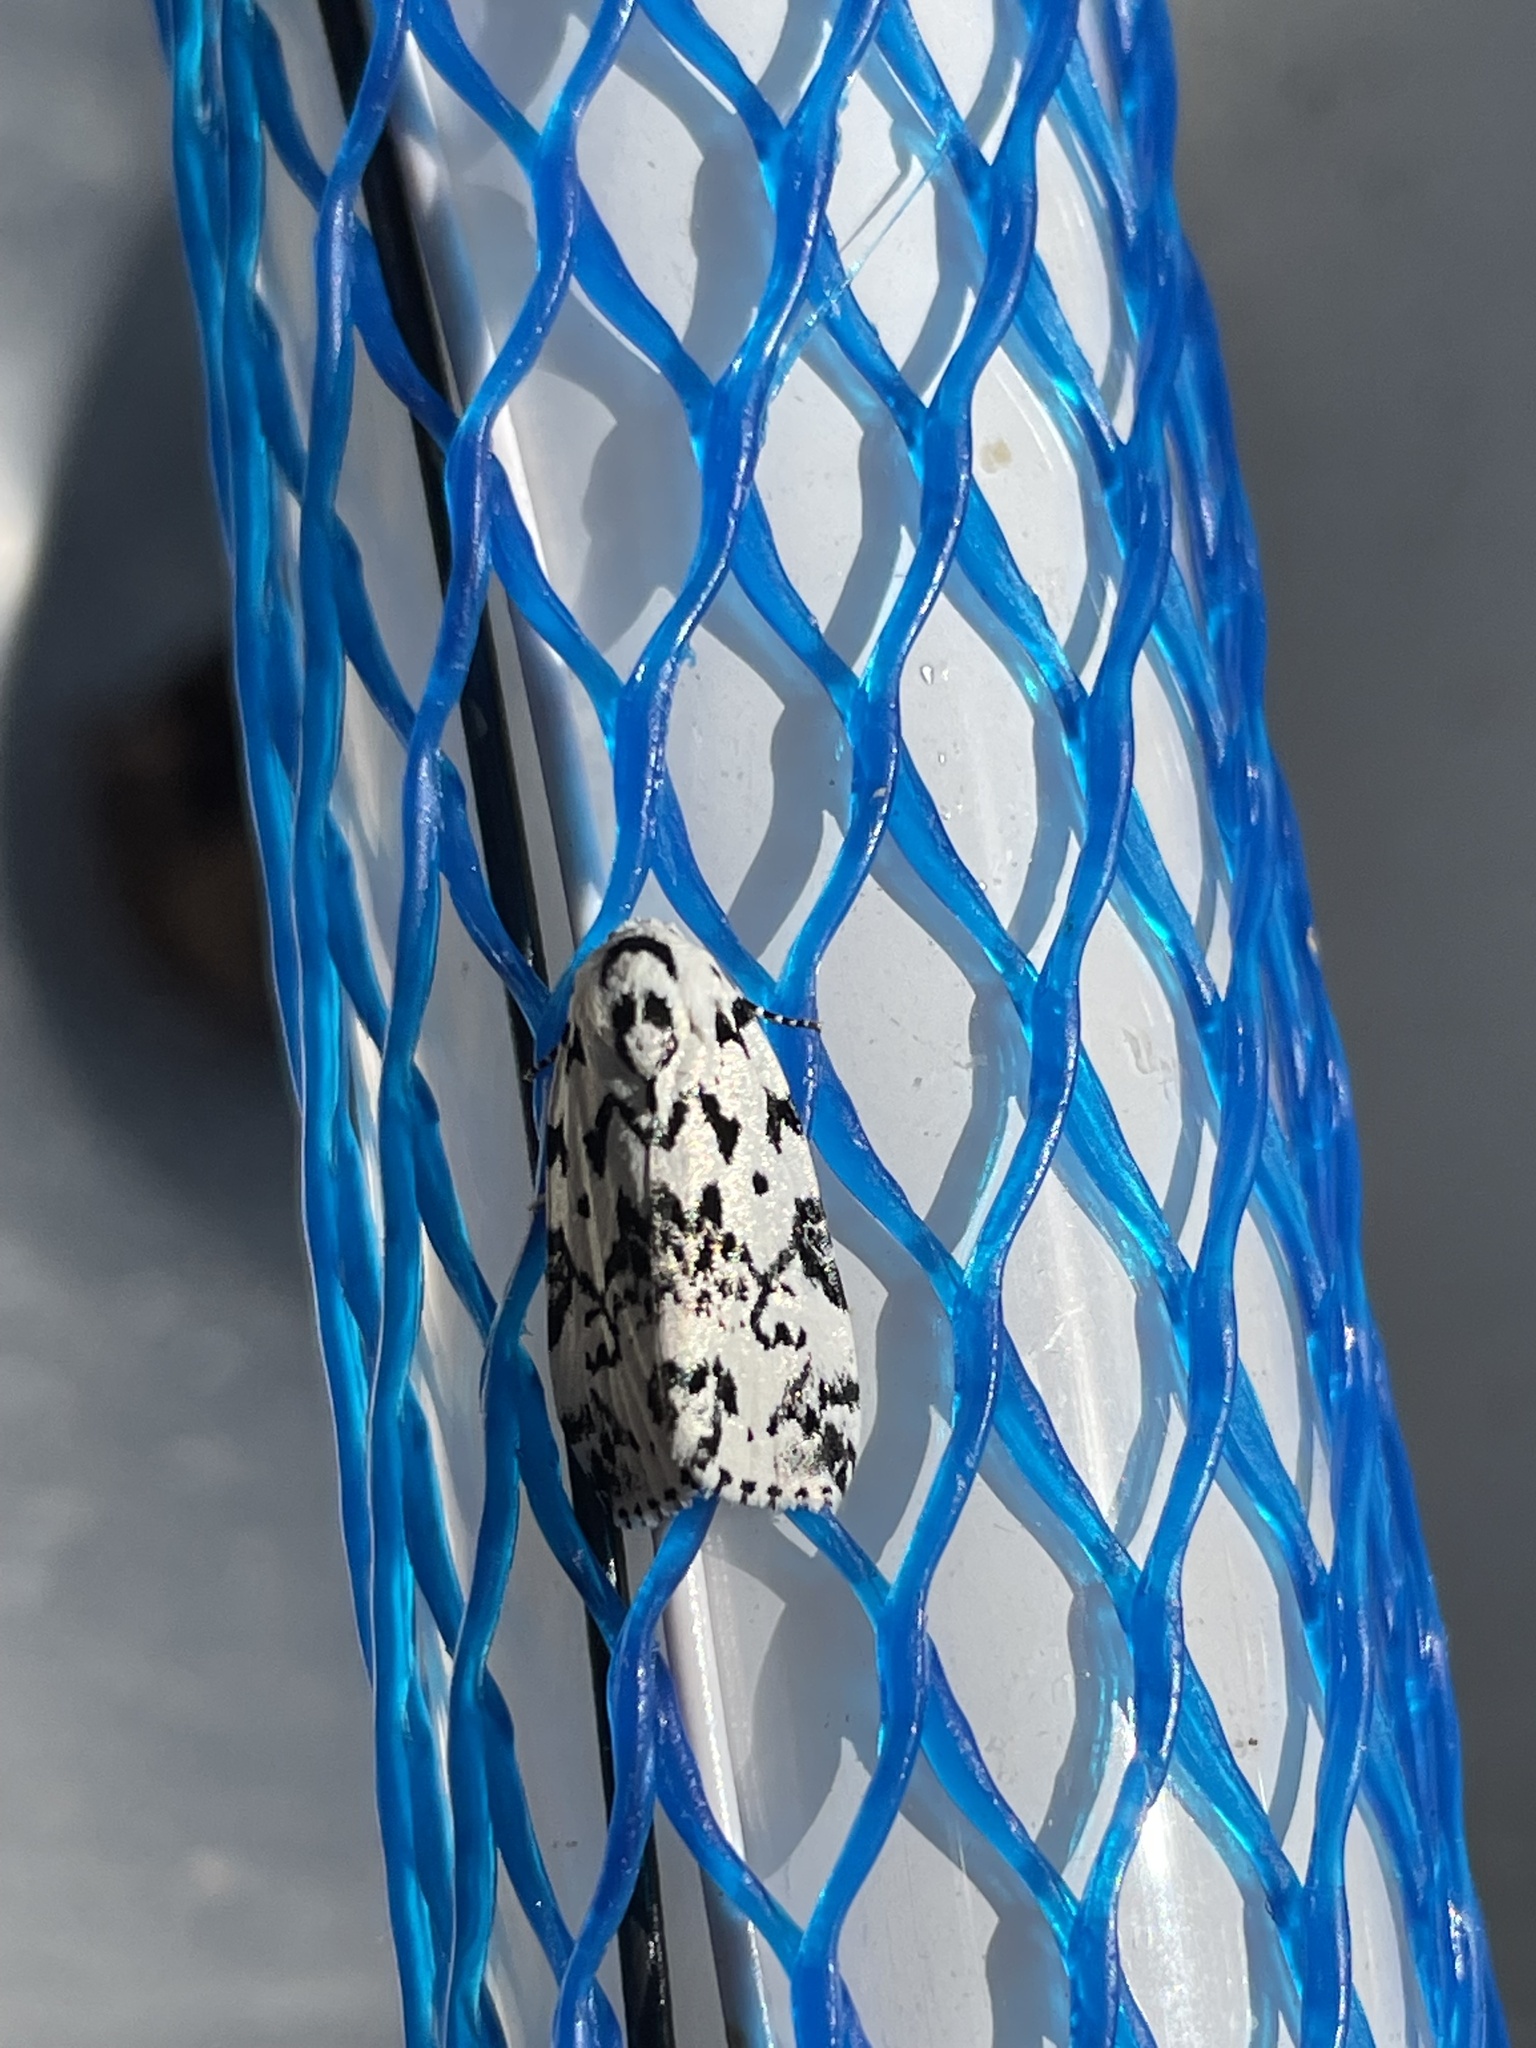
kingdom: Animalia
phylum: Arthropoda
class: Insecta
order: Lepidoptera
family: Noctuidae
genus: Polygrammate
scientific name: Polygrammate hebraeicum
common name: Hebrew moth
